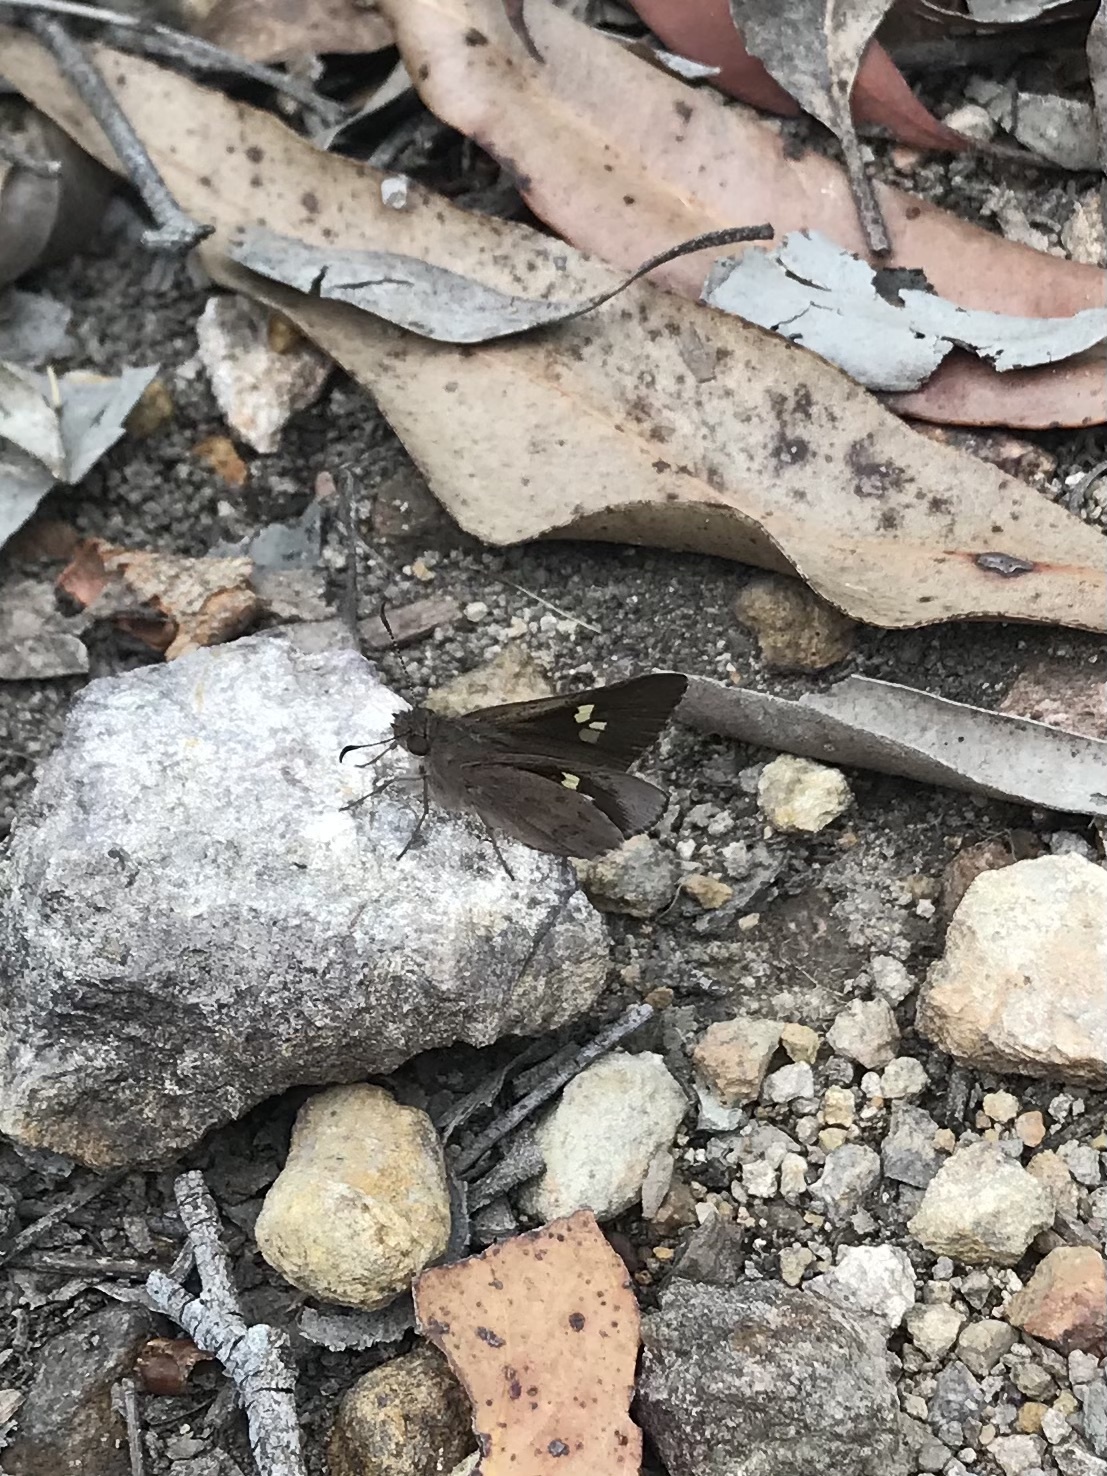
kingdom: Animalia
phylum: Arthropoda
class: Insecta
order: Lepidoptera
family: Hesperiidae
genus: Mesodina
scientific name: Mesodina halyzia
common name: Eastern iris-skipper
